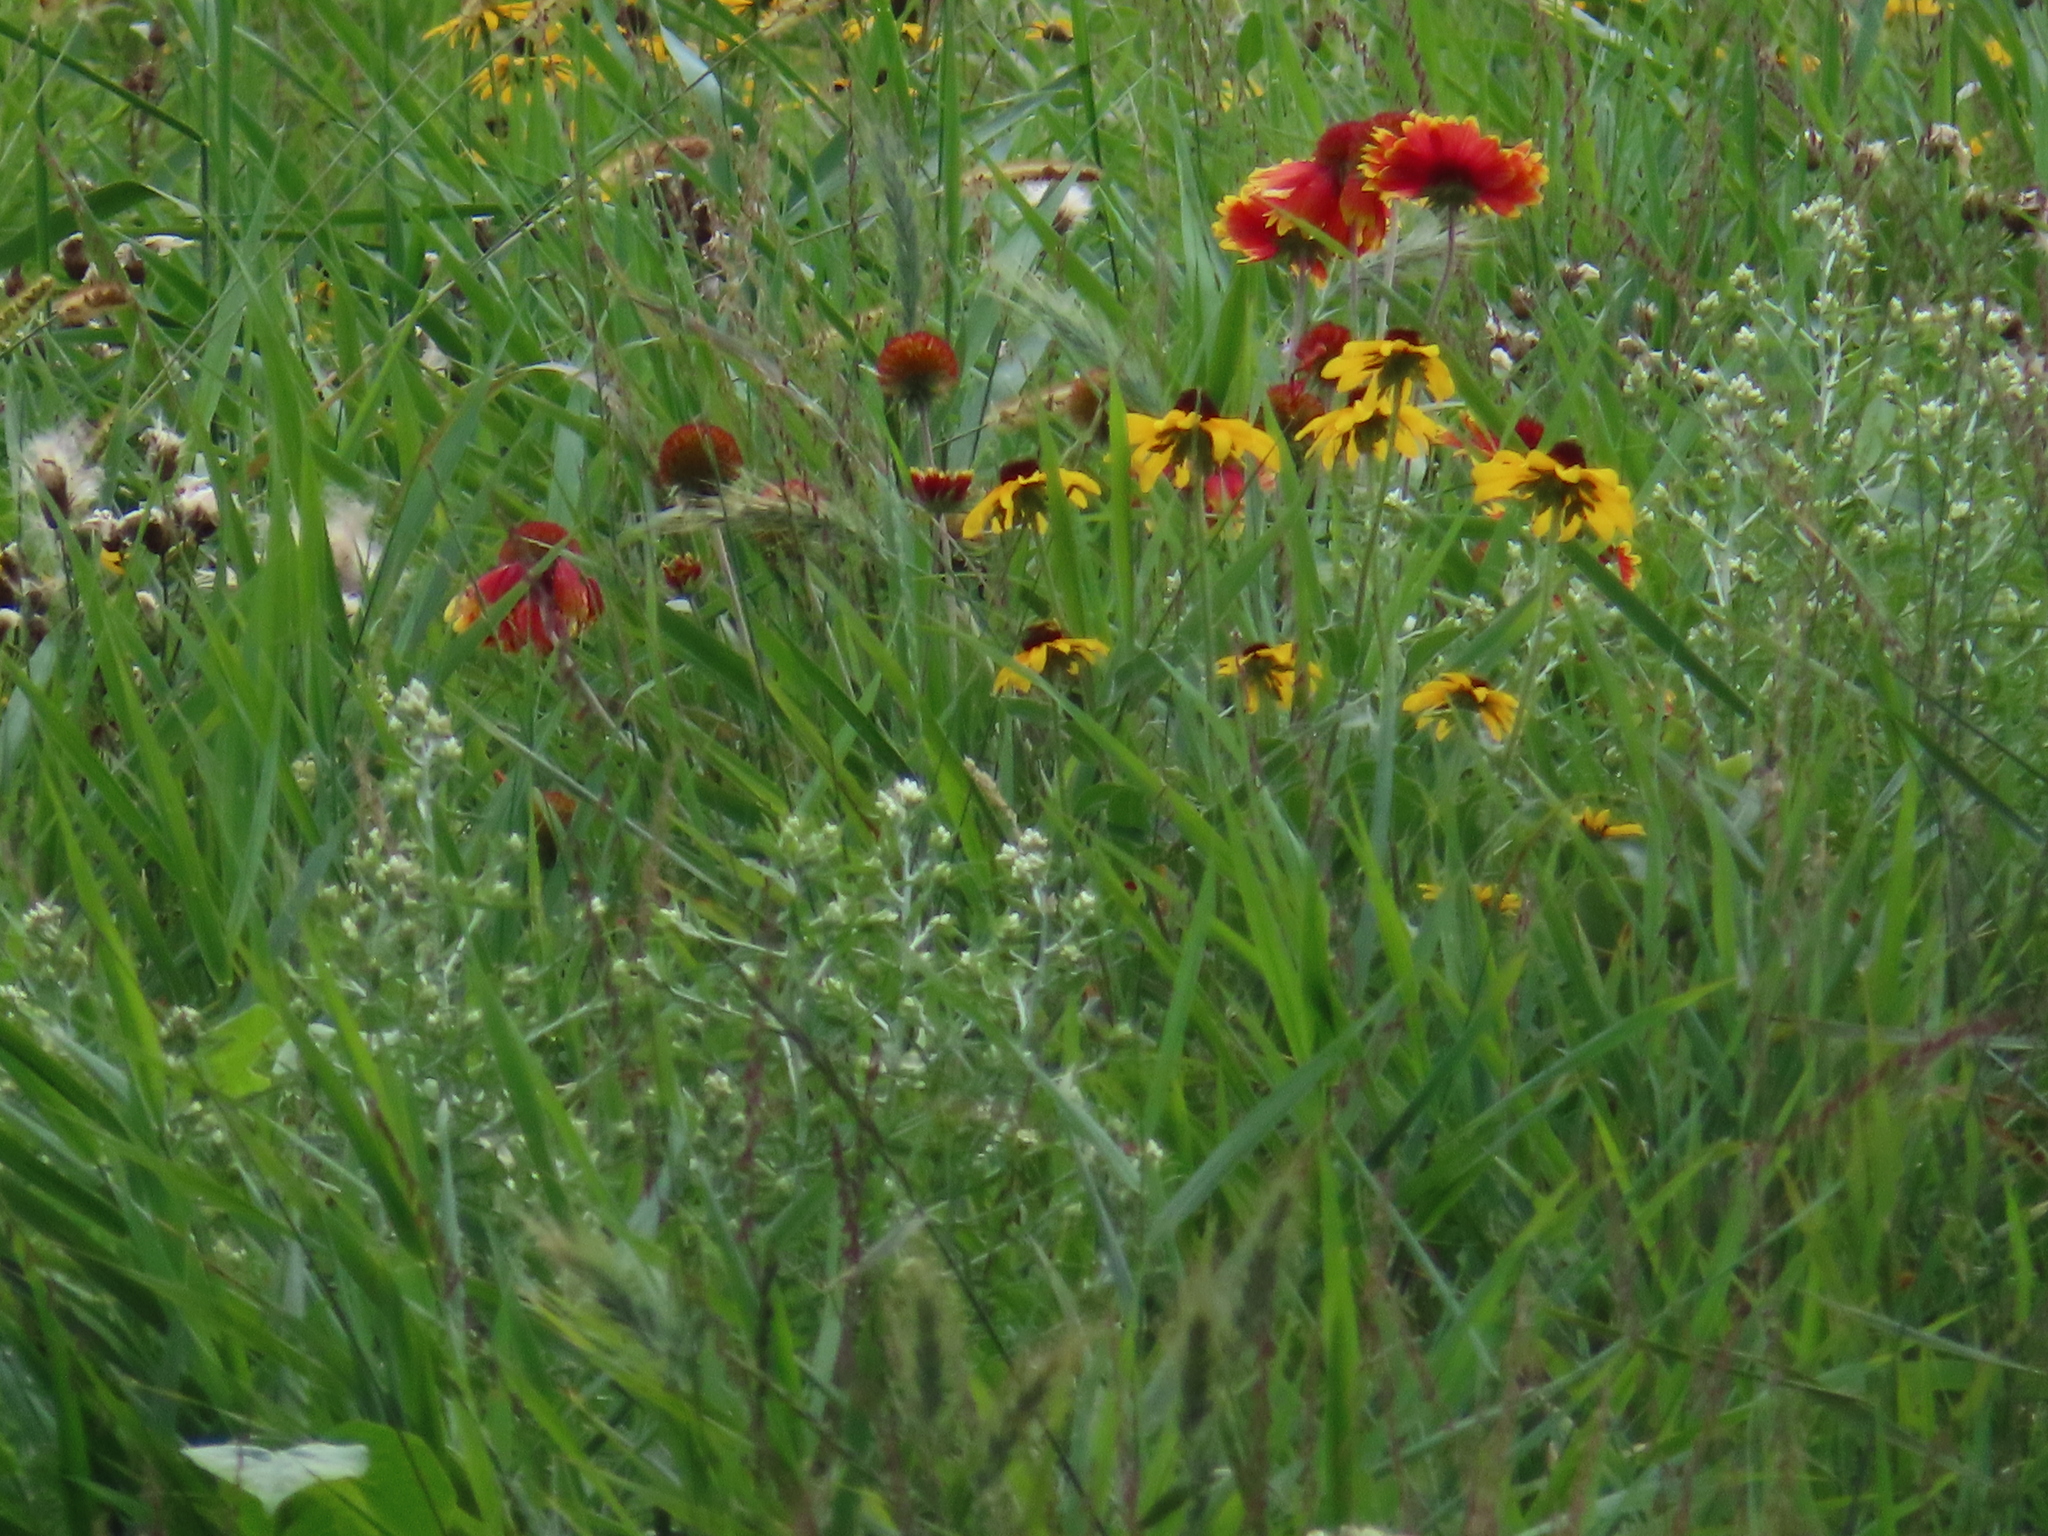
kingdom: Plantae
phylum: Tracheophyta
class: Magnoliopsida
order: Asterales
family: Asteraceae
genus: Gaillardia
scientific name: Gaillardia pulchella
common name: Firewheel
